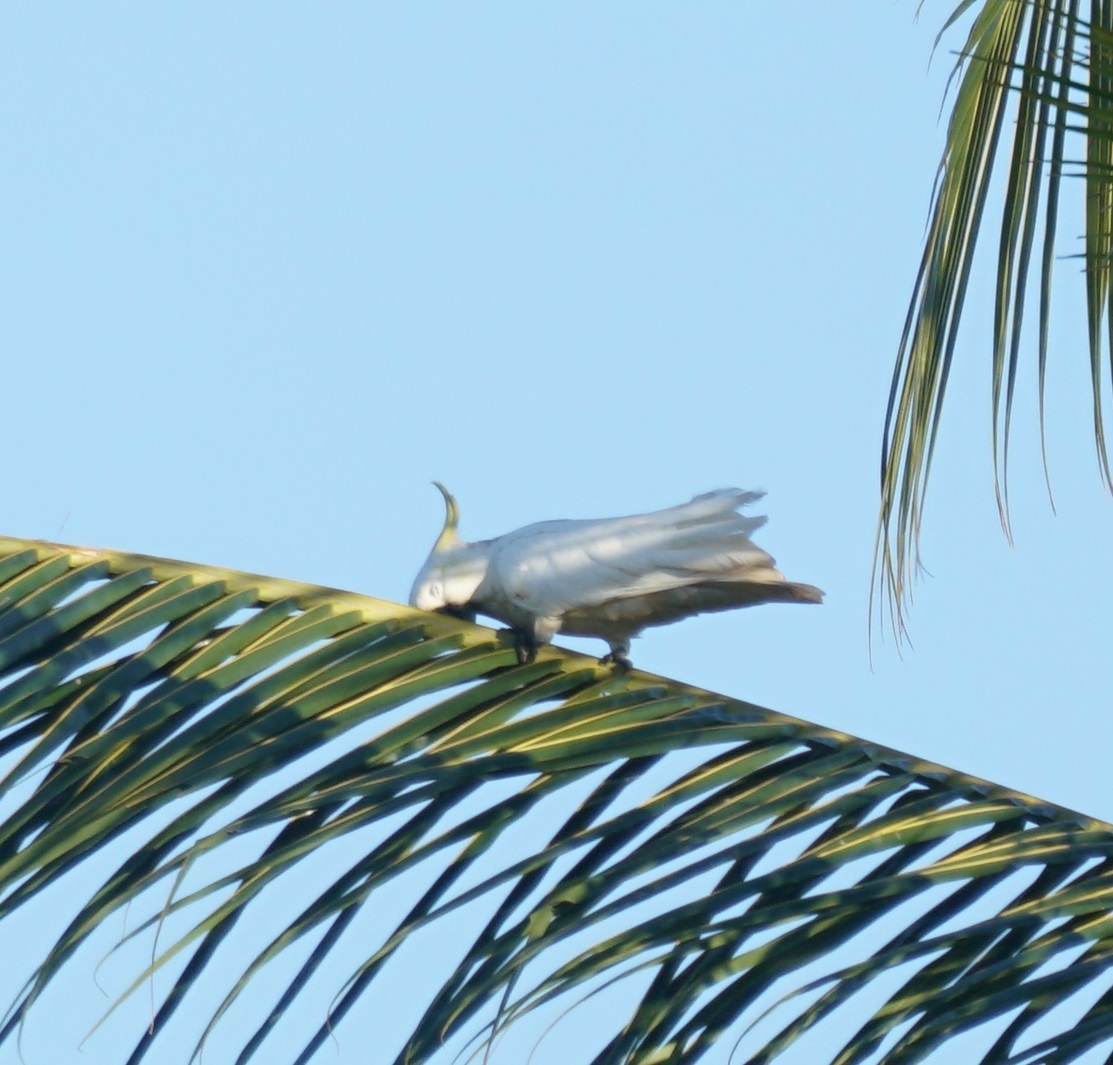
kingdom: Animalia
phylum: Chordata
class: Aves
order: Psittaciformes
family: Psittacidae
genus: Cacatua
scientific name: Cacatua galerita
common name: Sulphur-crested cockatoo
